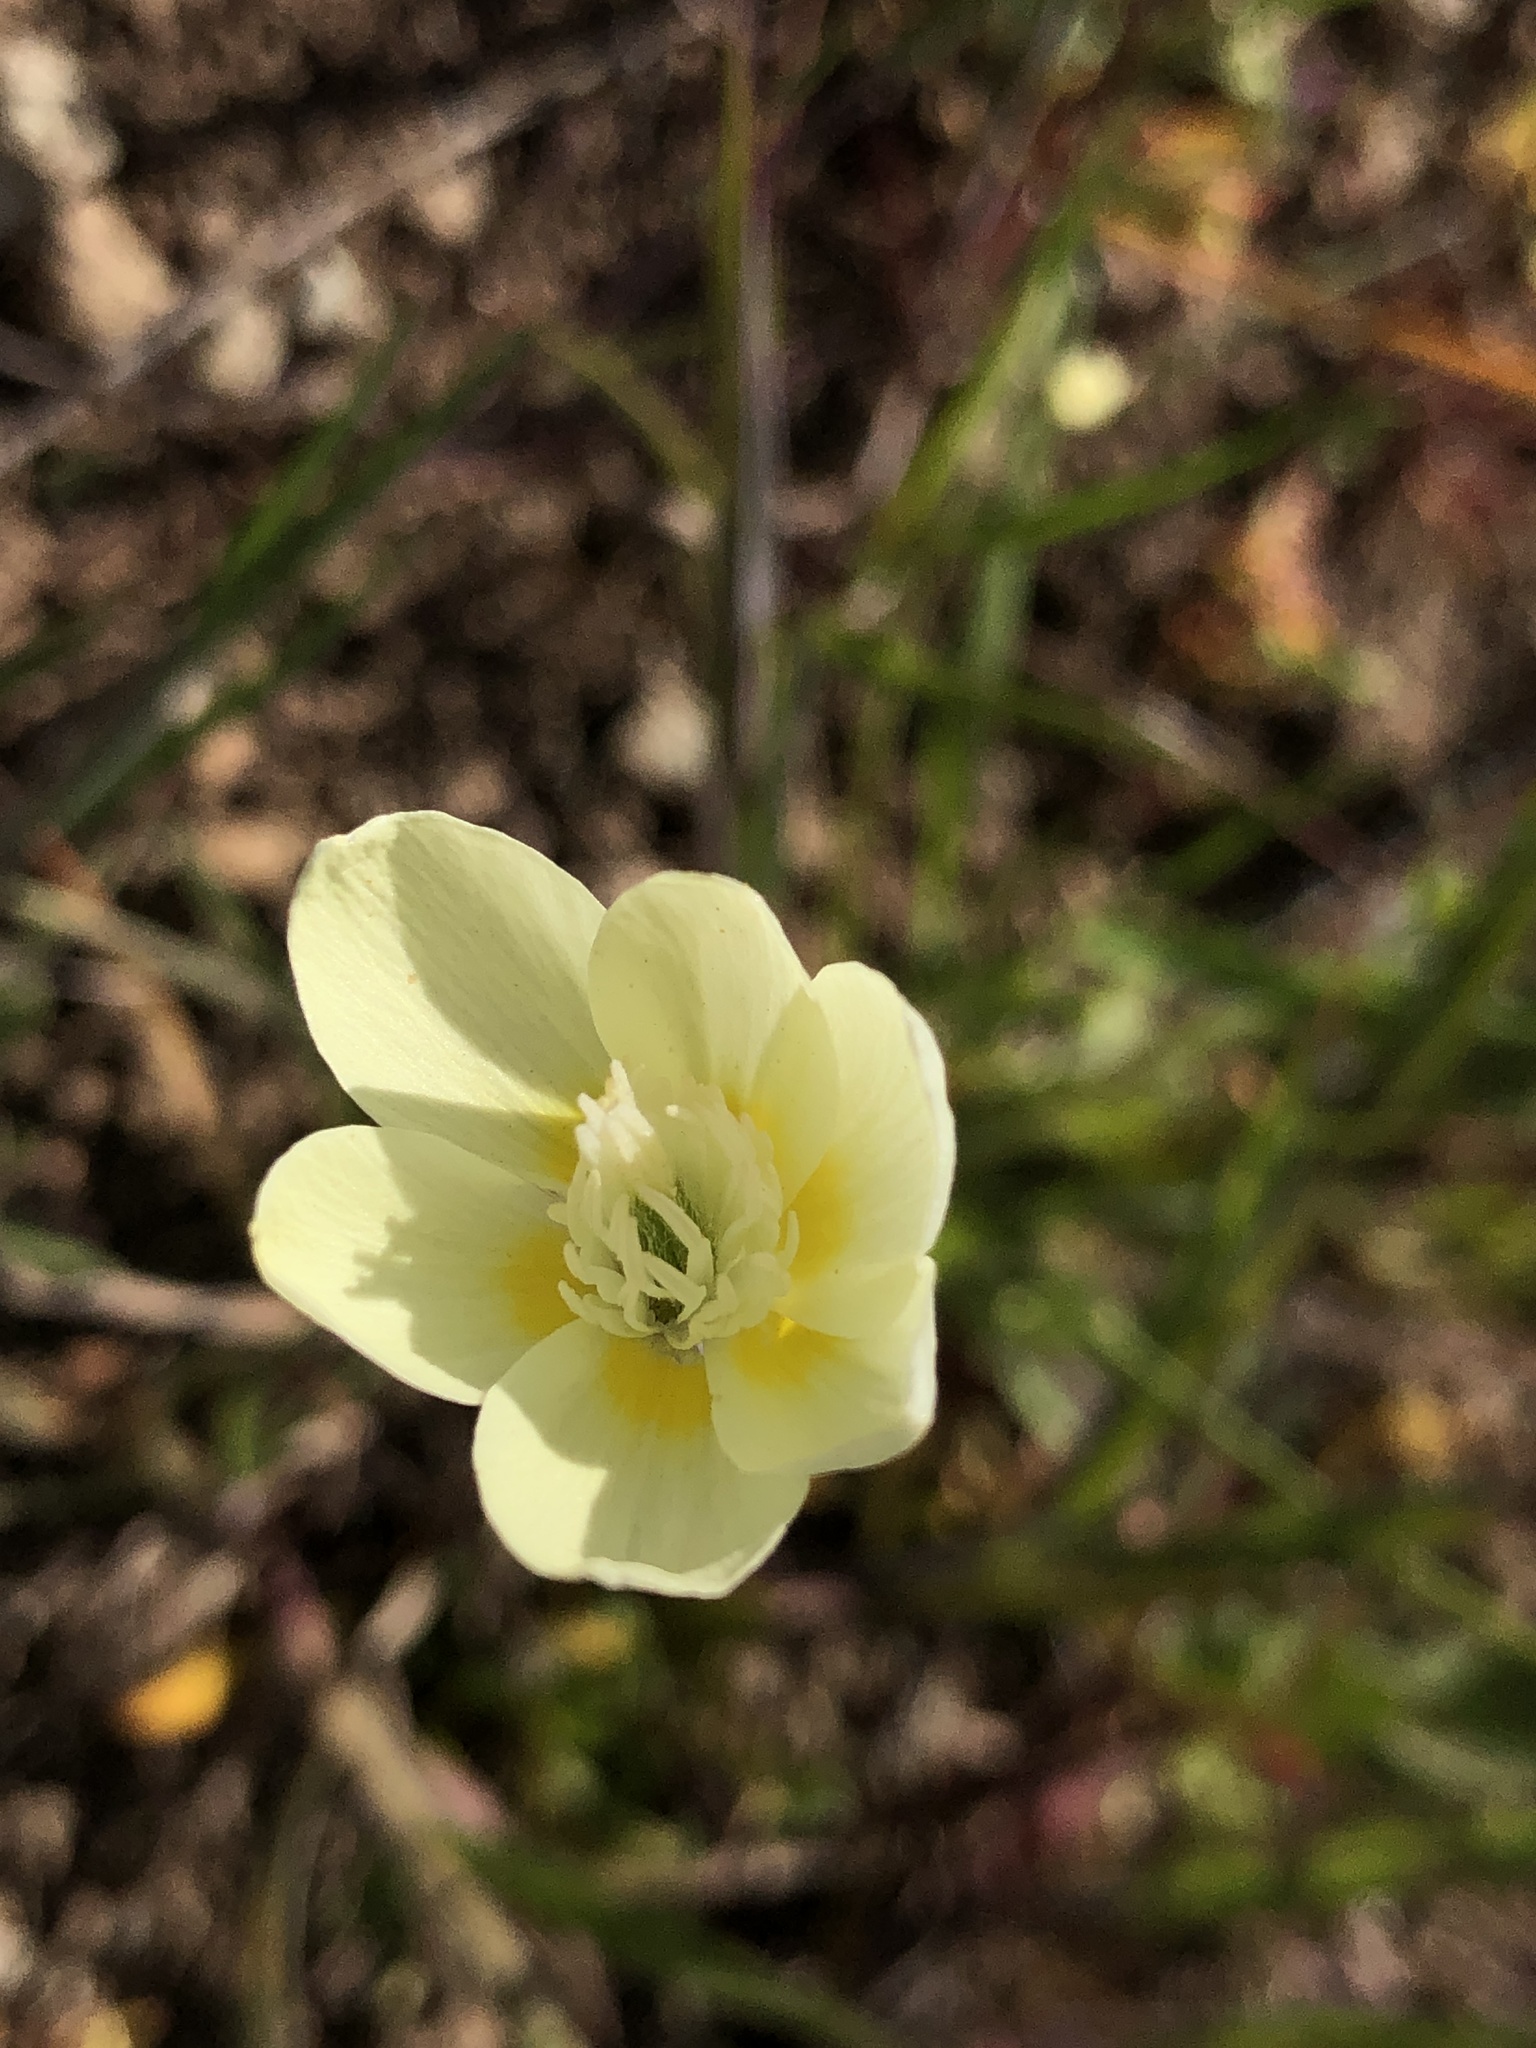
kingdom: Plantae
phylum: Tracheophyta
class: Magnoliopsida
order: Ranunculales
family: Papaveraceae
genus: Platystemon
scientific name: Platystemon californicus
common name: Cream-cups
